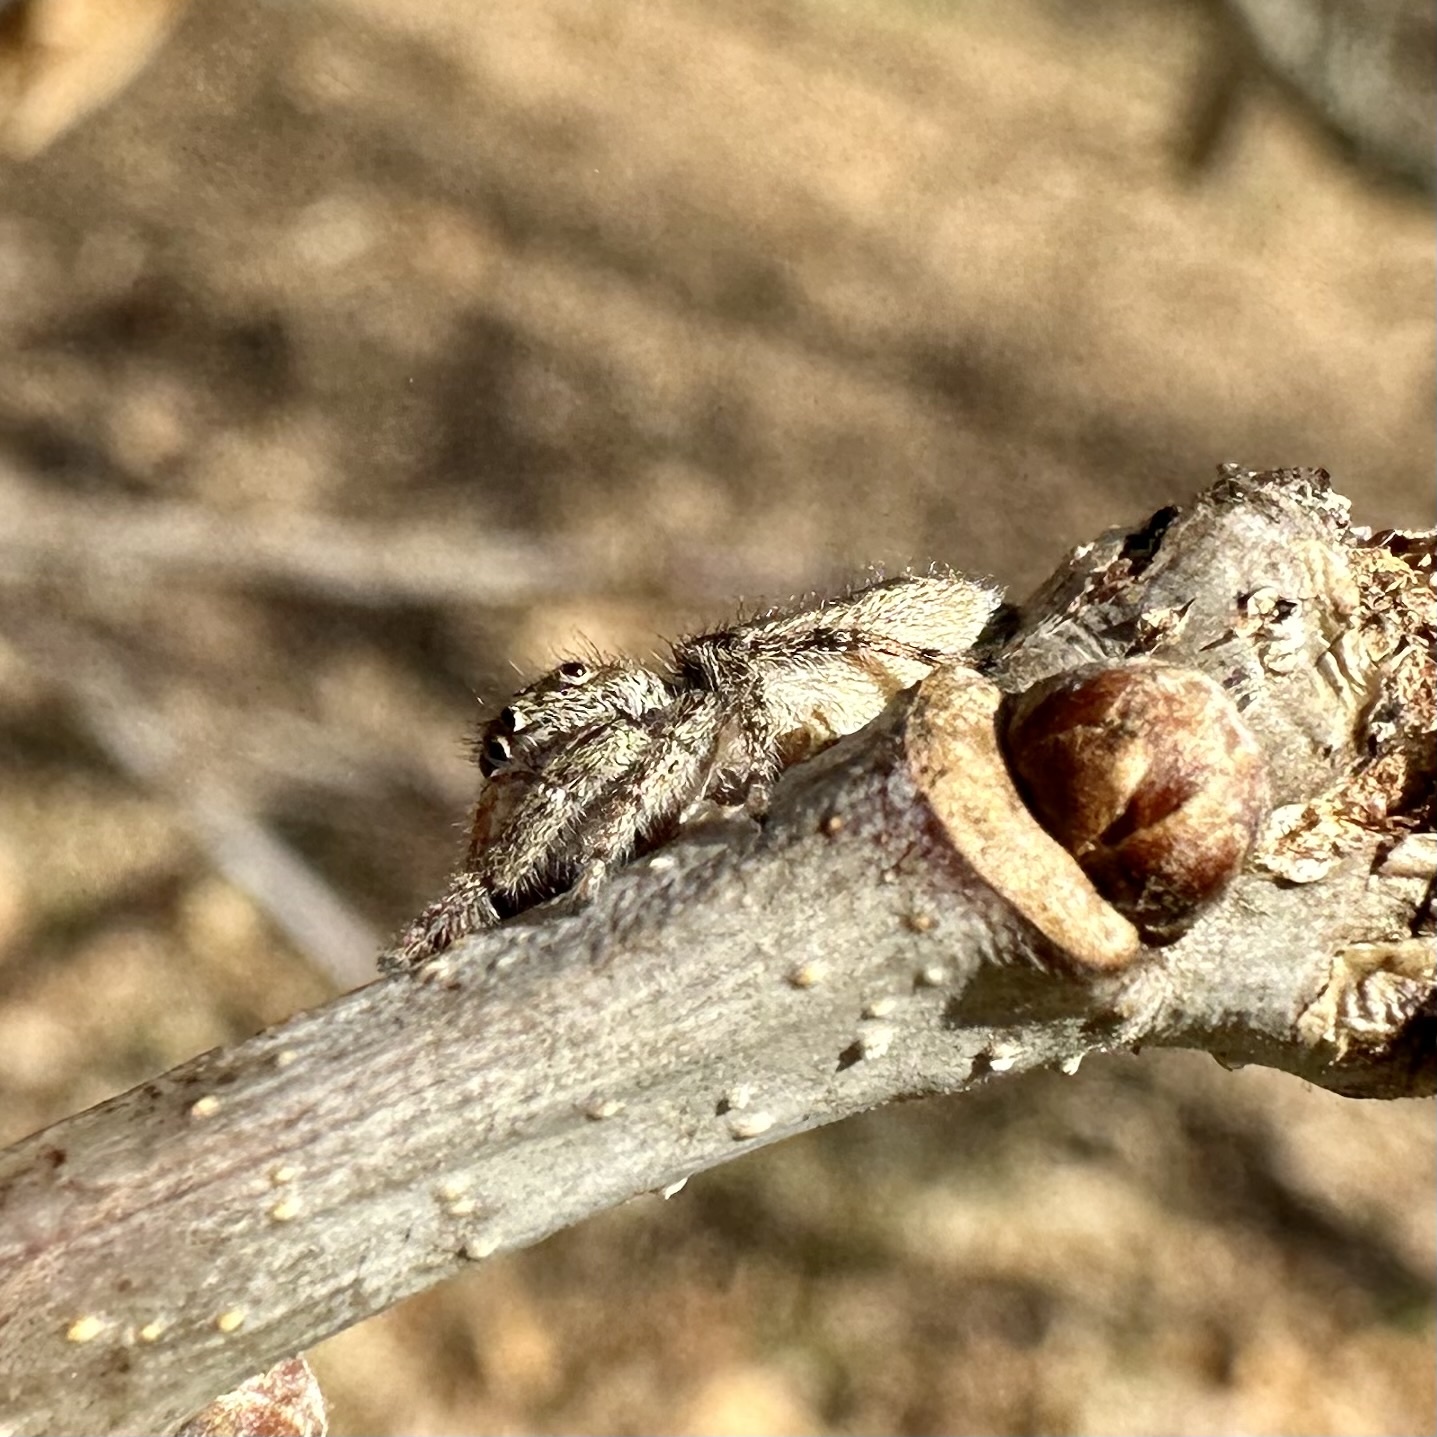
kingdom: Animalia
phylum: Arthropoda
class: Arachnida
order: Araneae
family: Salticidae
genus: Eris
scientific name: Eris militaris
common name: Bronze jumper
